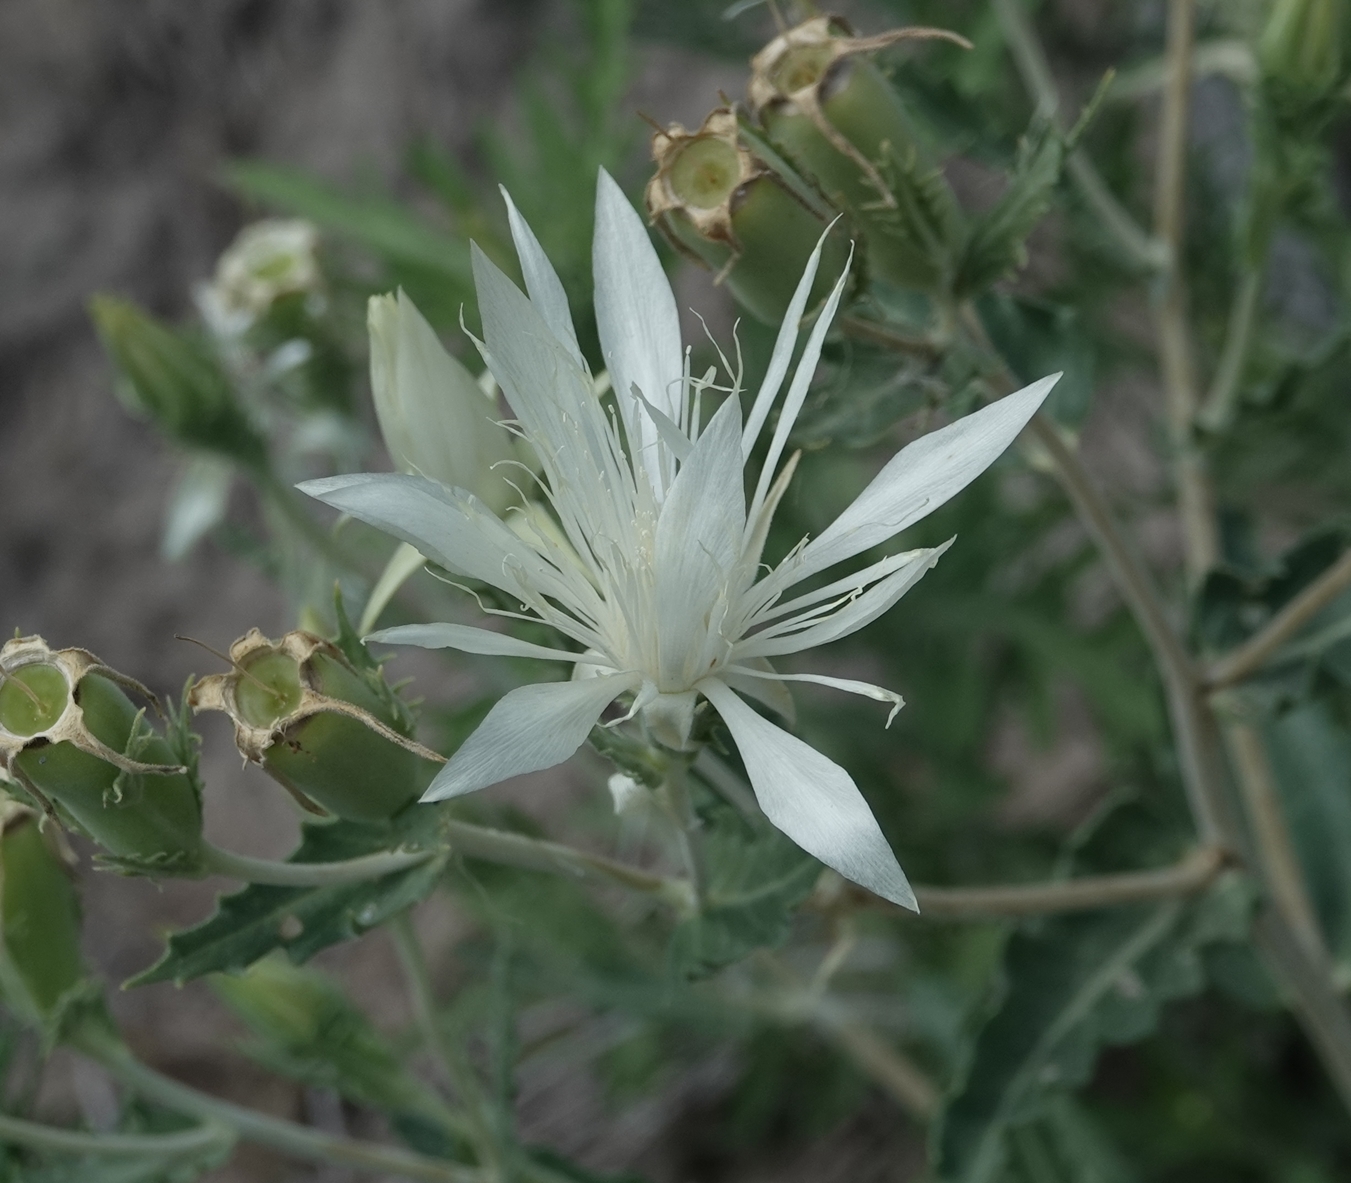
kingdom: Plantae
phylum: Tracheophyta
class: Magnoliopsida
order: Cornales
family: Loasaceae
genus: Mentzelia
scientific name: Mentzelia nuda
